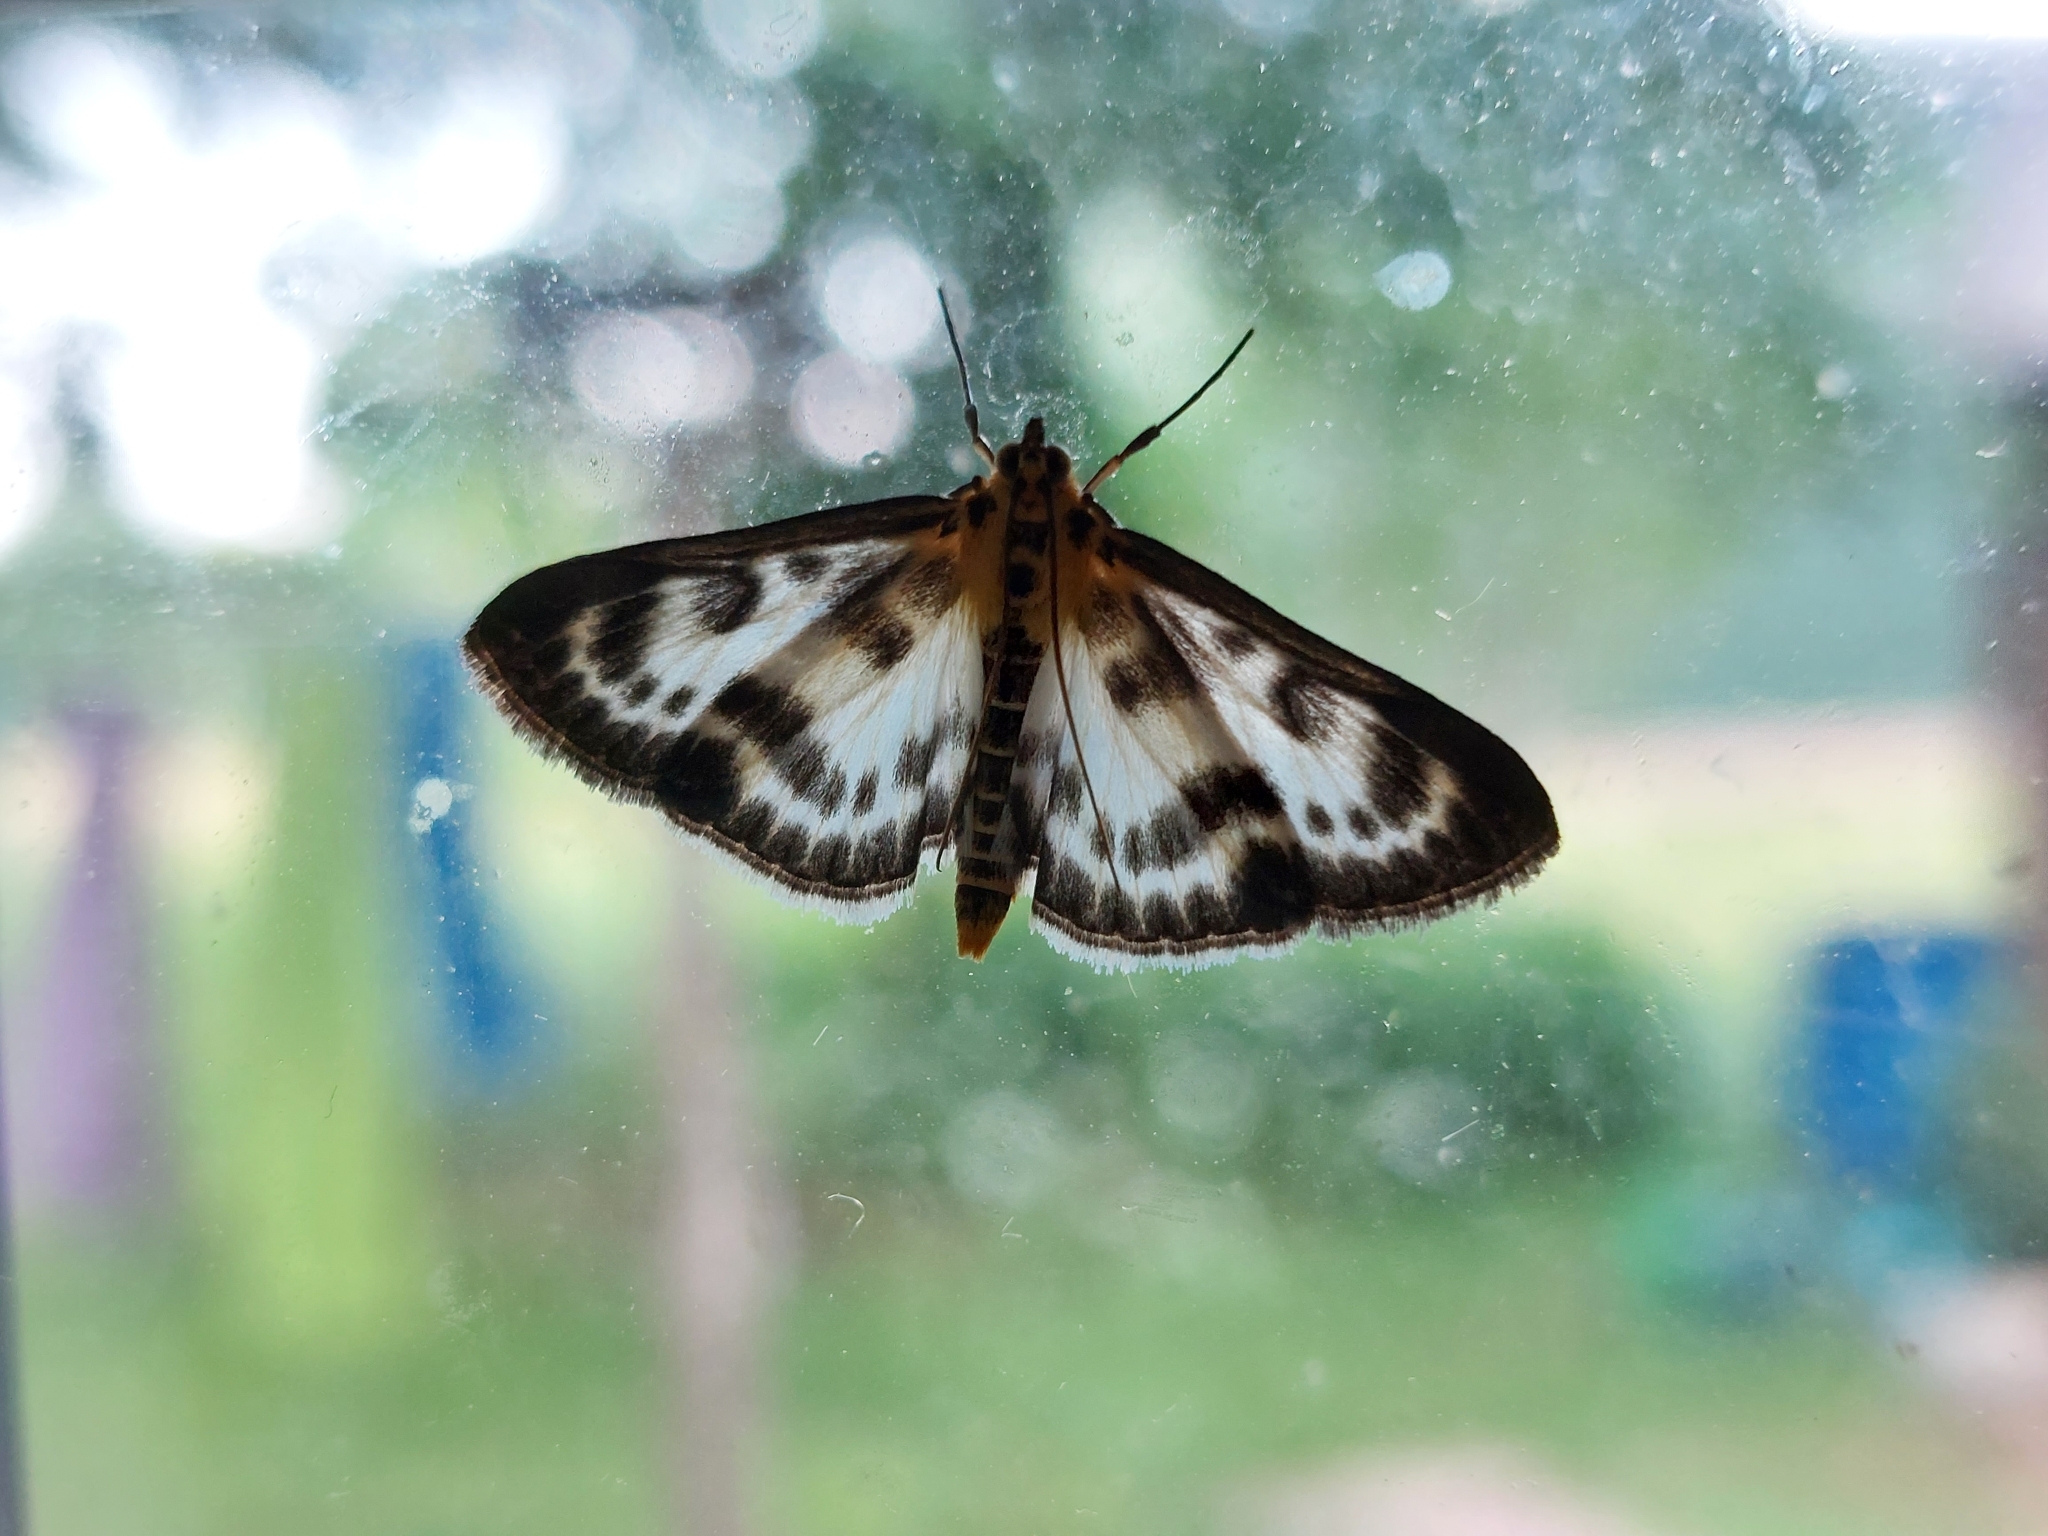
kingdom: Animalia
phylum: Arthropoda
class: Insecta
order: Lepidoptera
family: Crambidae
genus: Anania
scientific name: Anania hortulata
